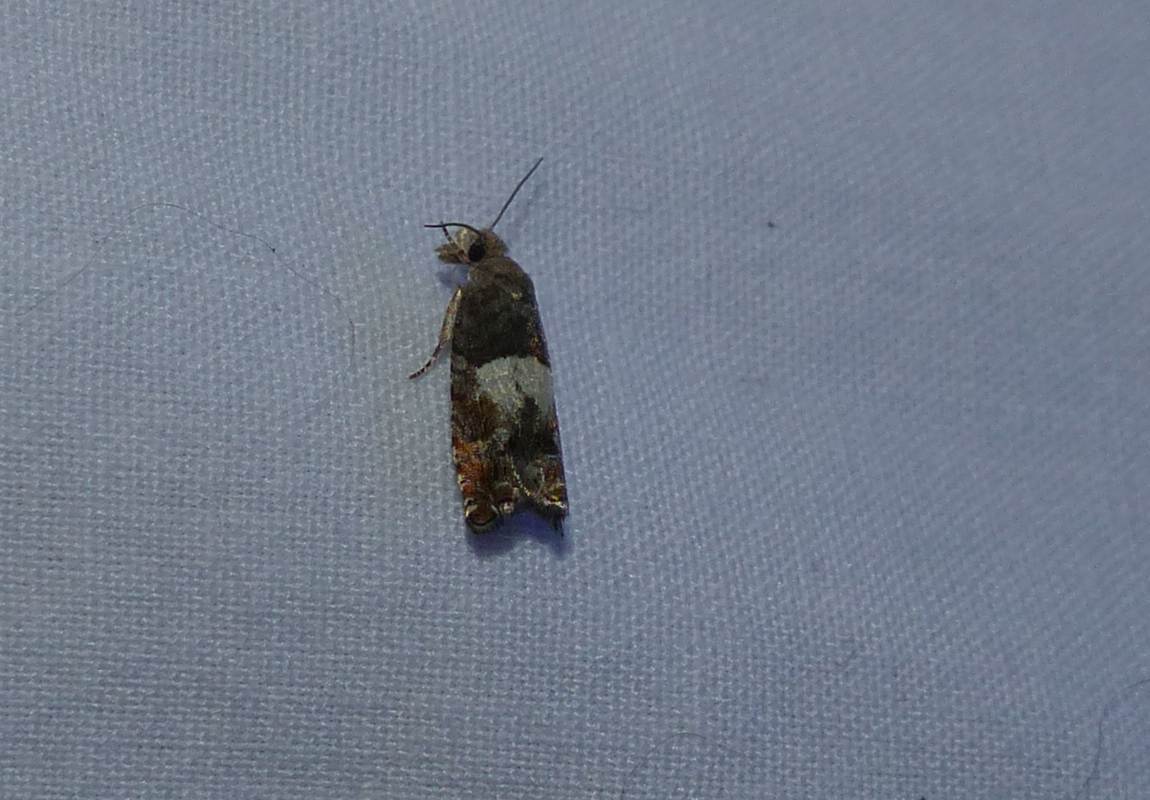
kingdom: Animalia
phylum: Arthropoda
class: Insecta
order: Lepidoptera
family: Tortricidae
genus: Epinotia
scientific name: Epinotia transmissana
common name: Walker's epinotia moth
